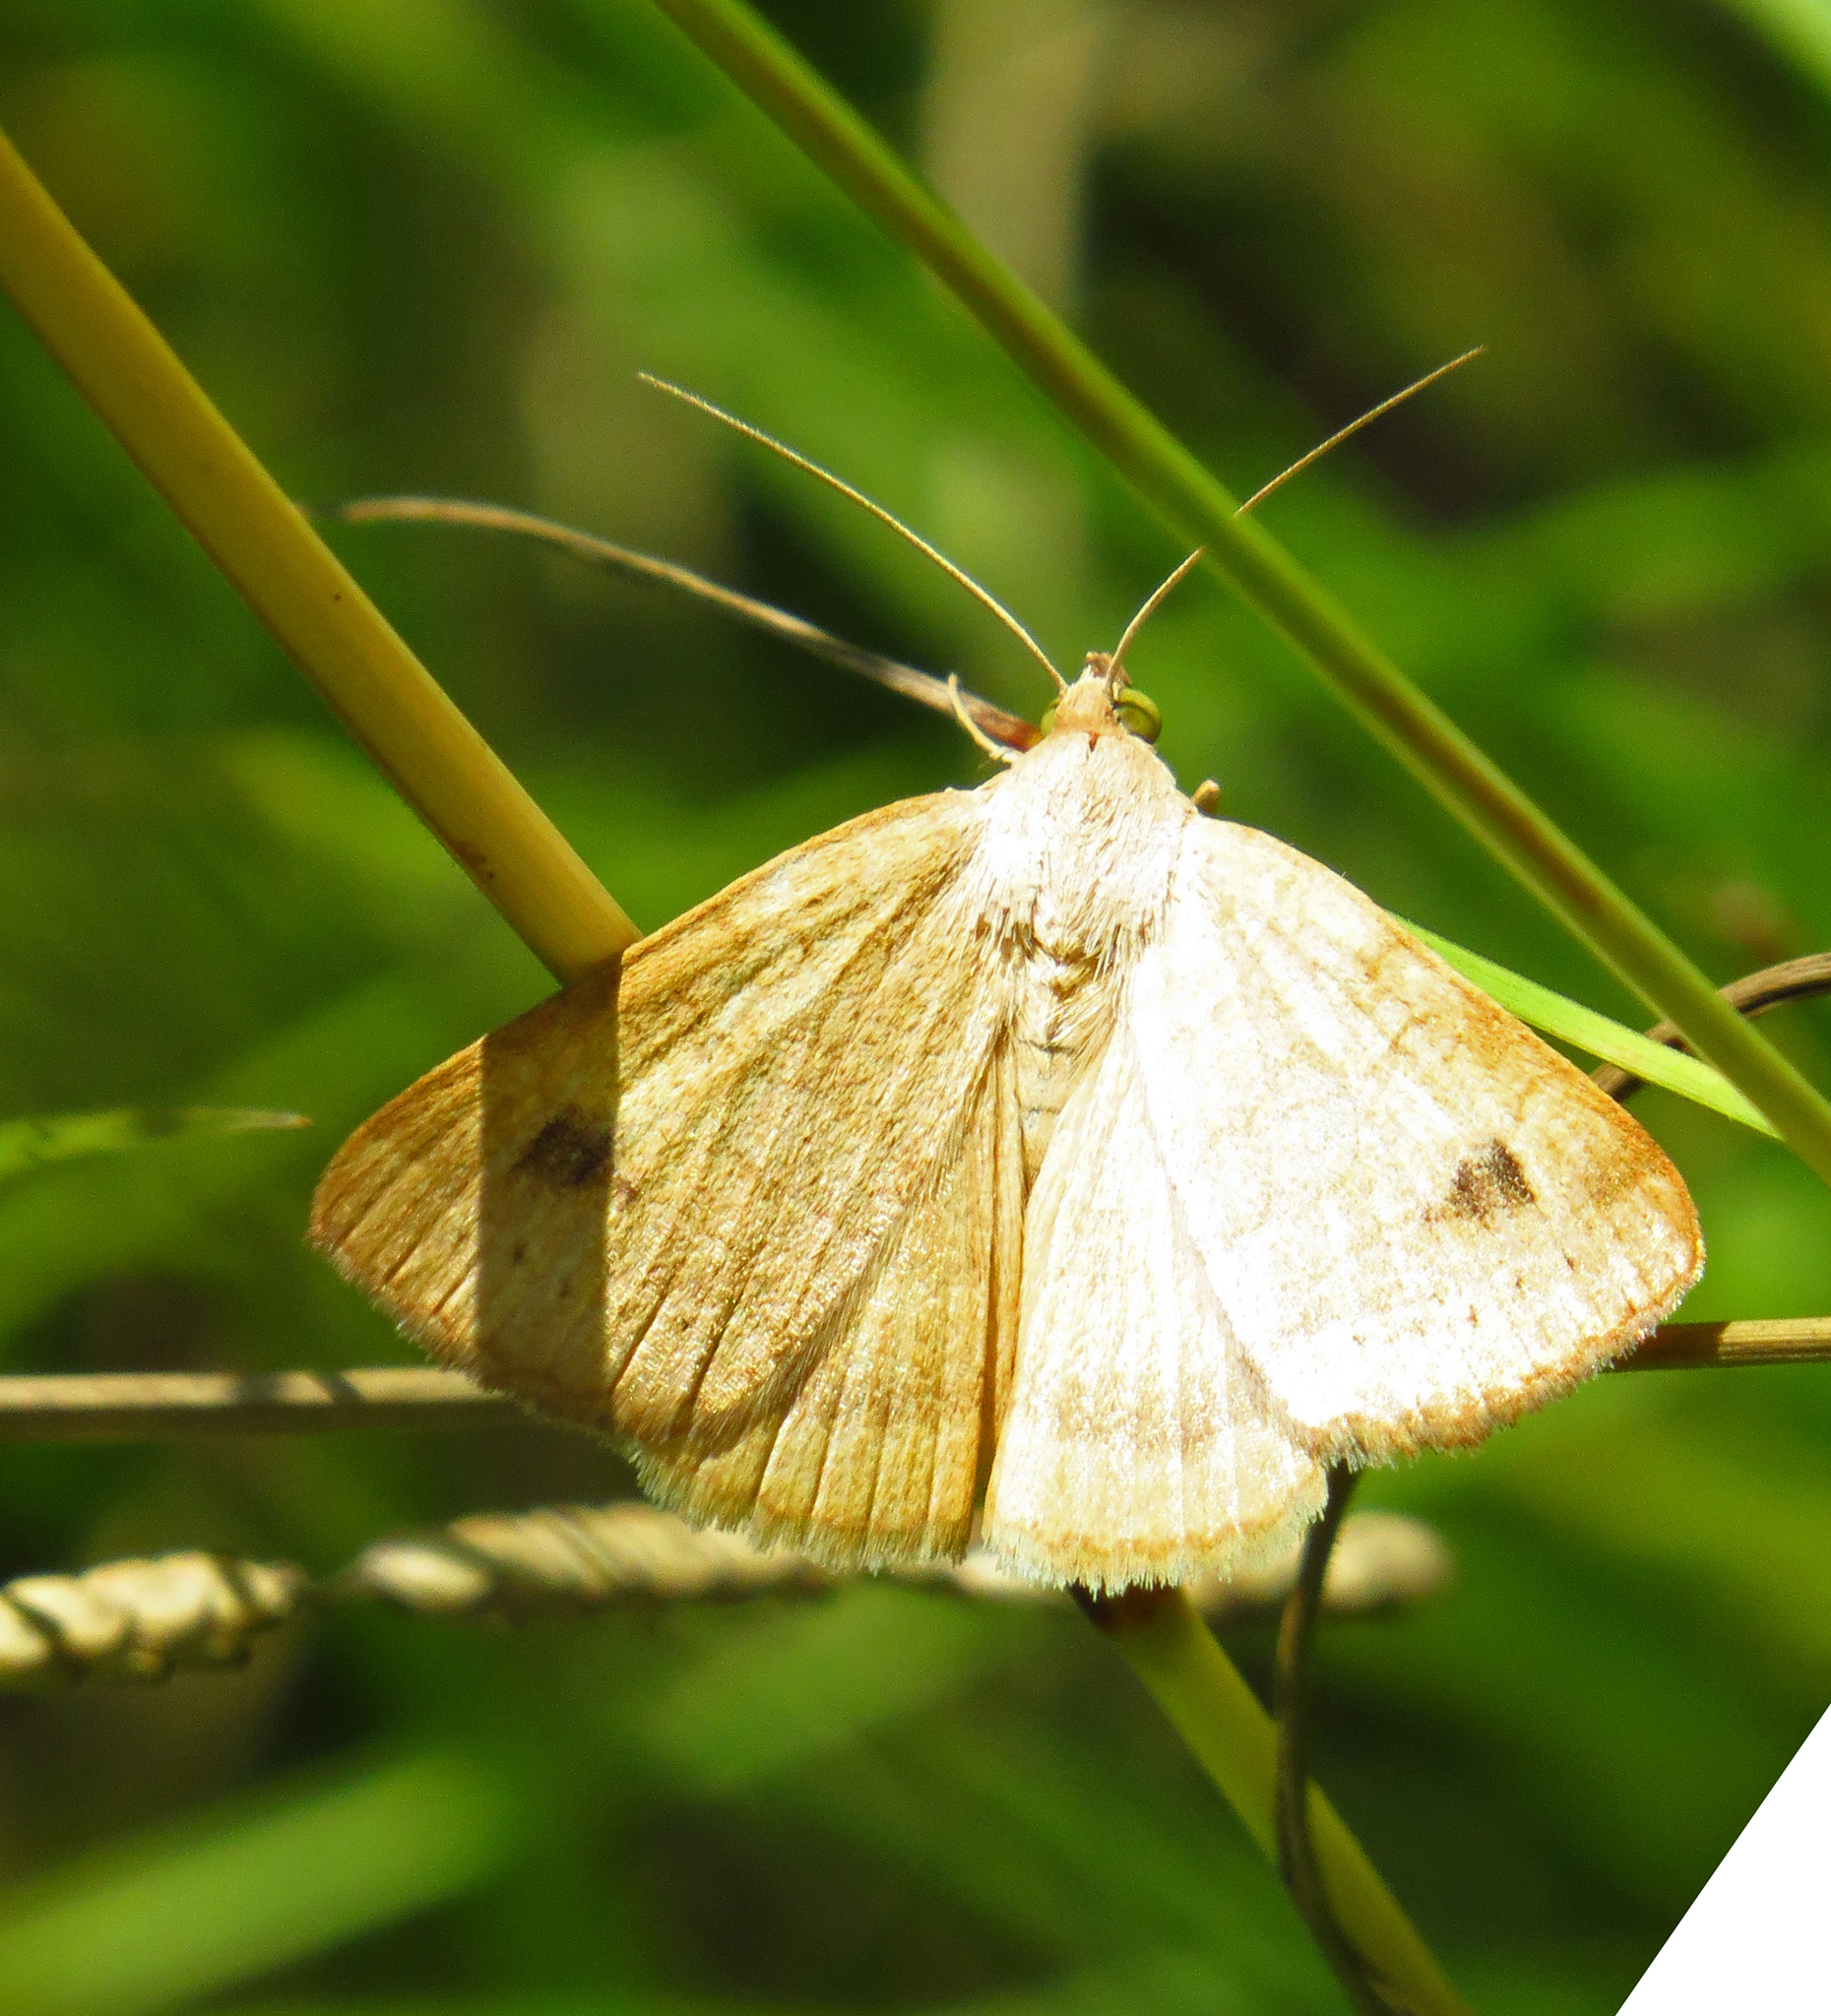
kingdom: Animalia
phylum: Arthropoda
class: Insecta
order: Lepidoptera
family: Erebidae
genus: Caenurgia
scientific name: Caenurgia chloropha
